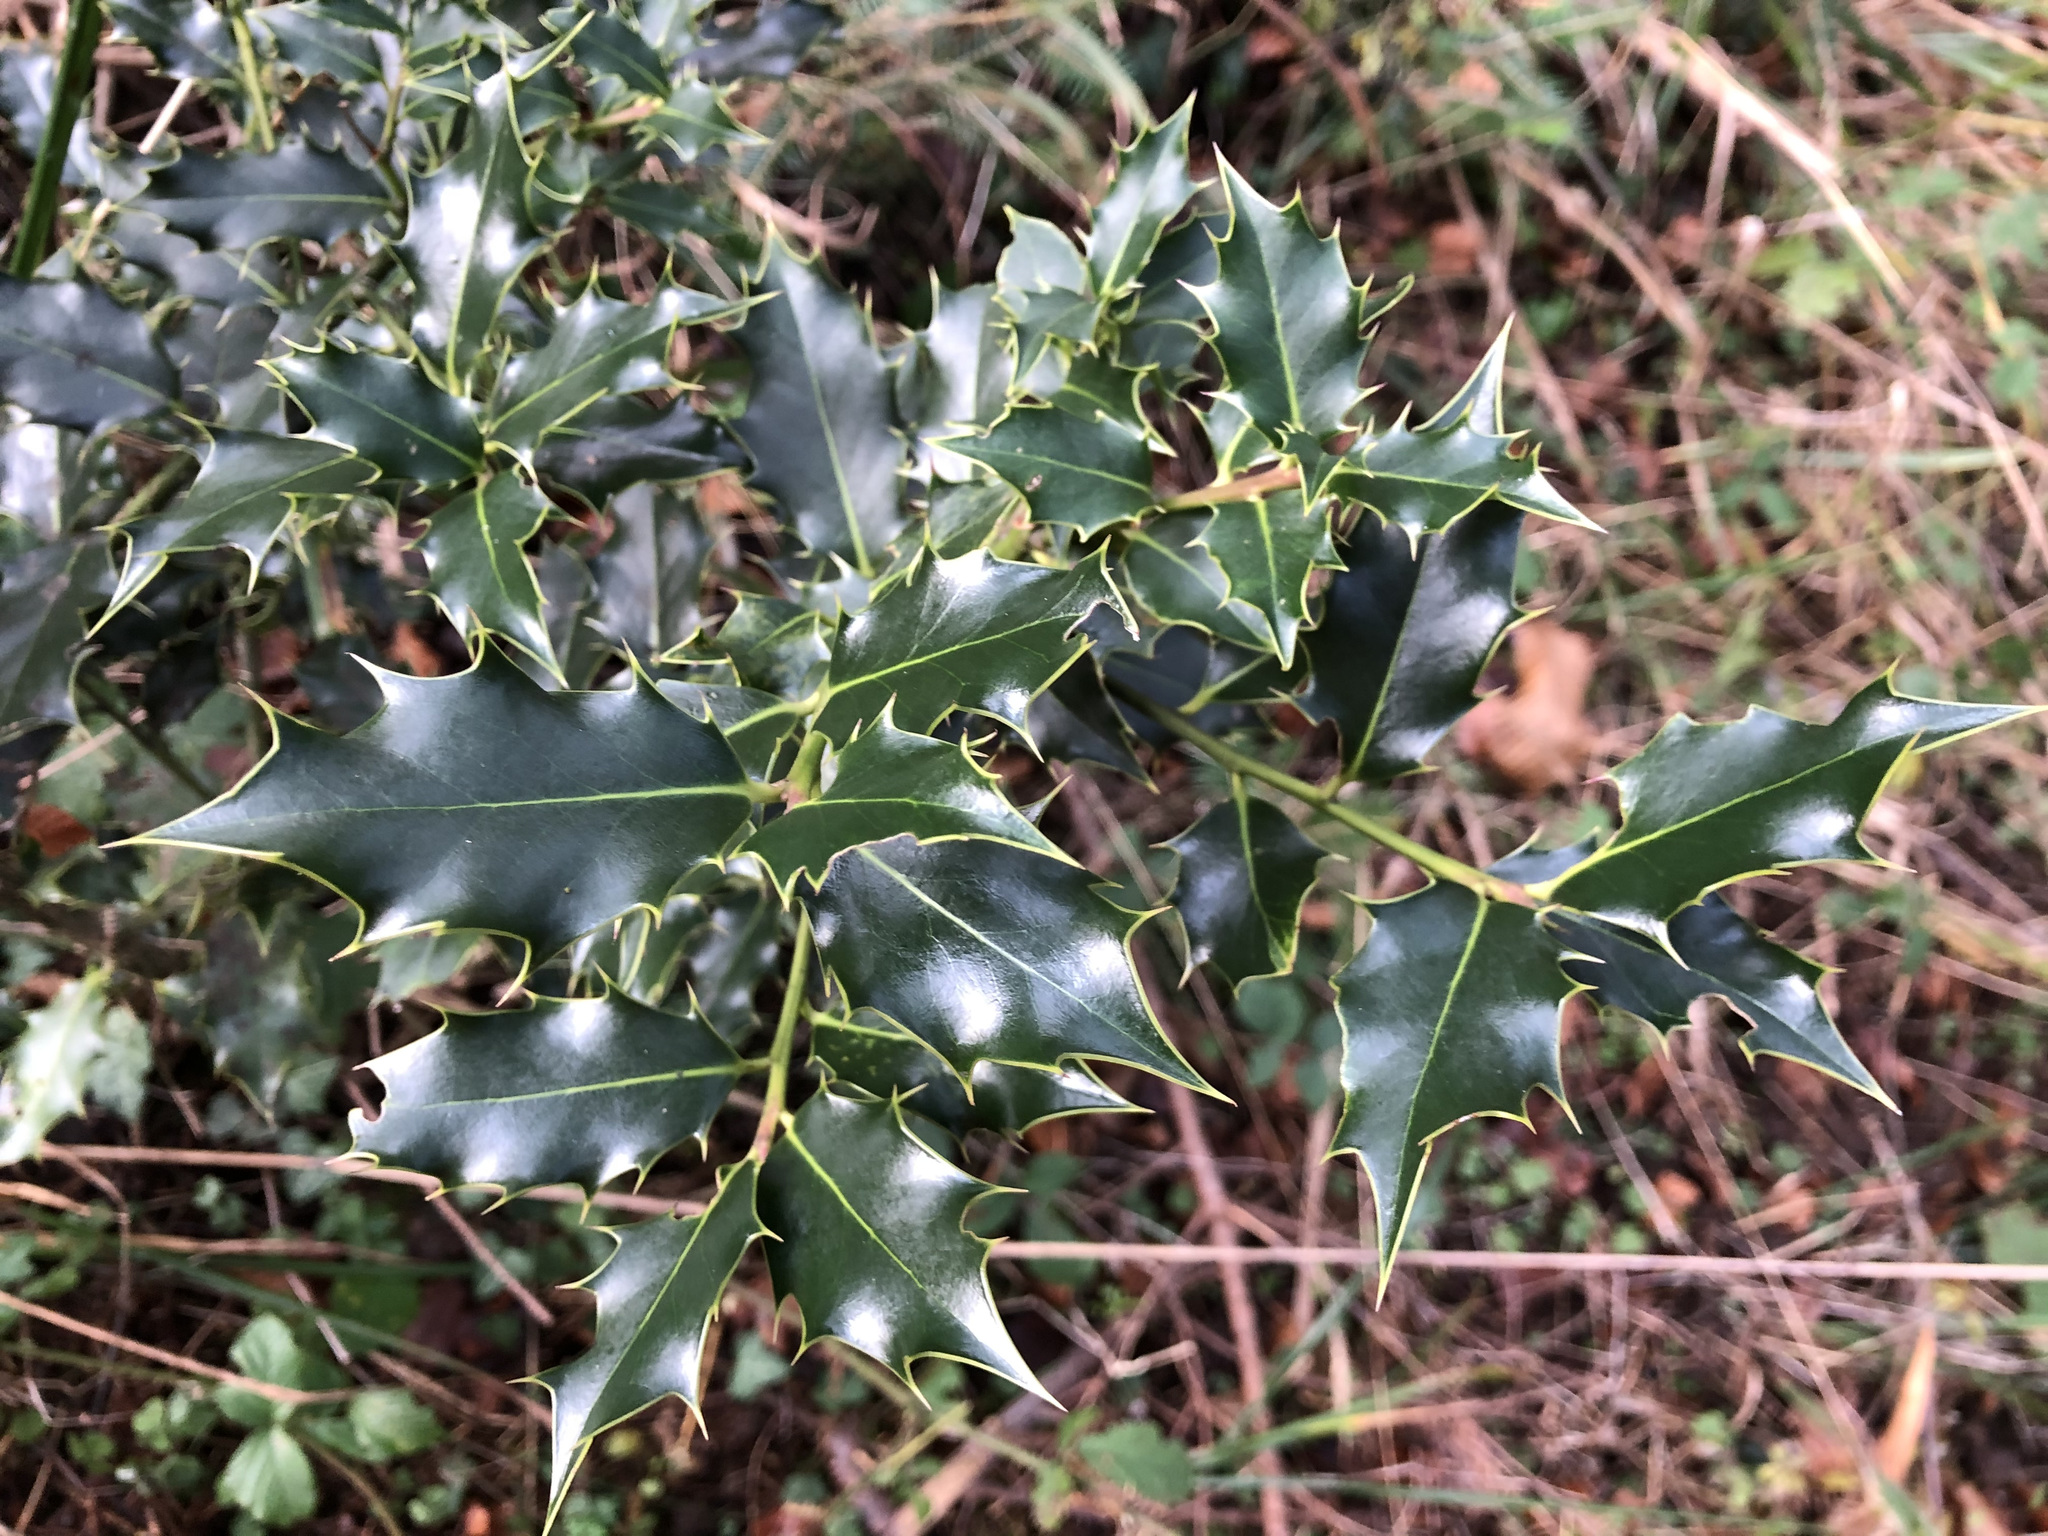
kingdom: Plantae
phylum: Tracheophyta
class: Magnoliopsida
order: Aquifoliales
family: Aquifoliaceae
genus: Ilex
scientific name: Ilex aquifolium
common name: English holly
